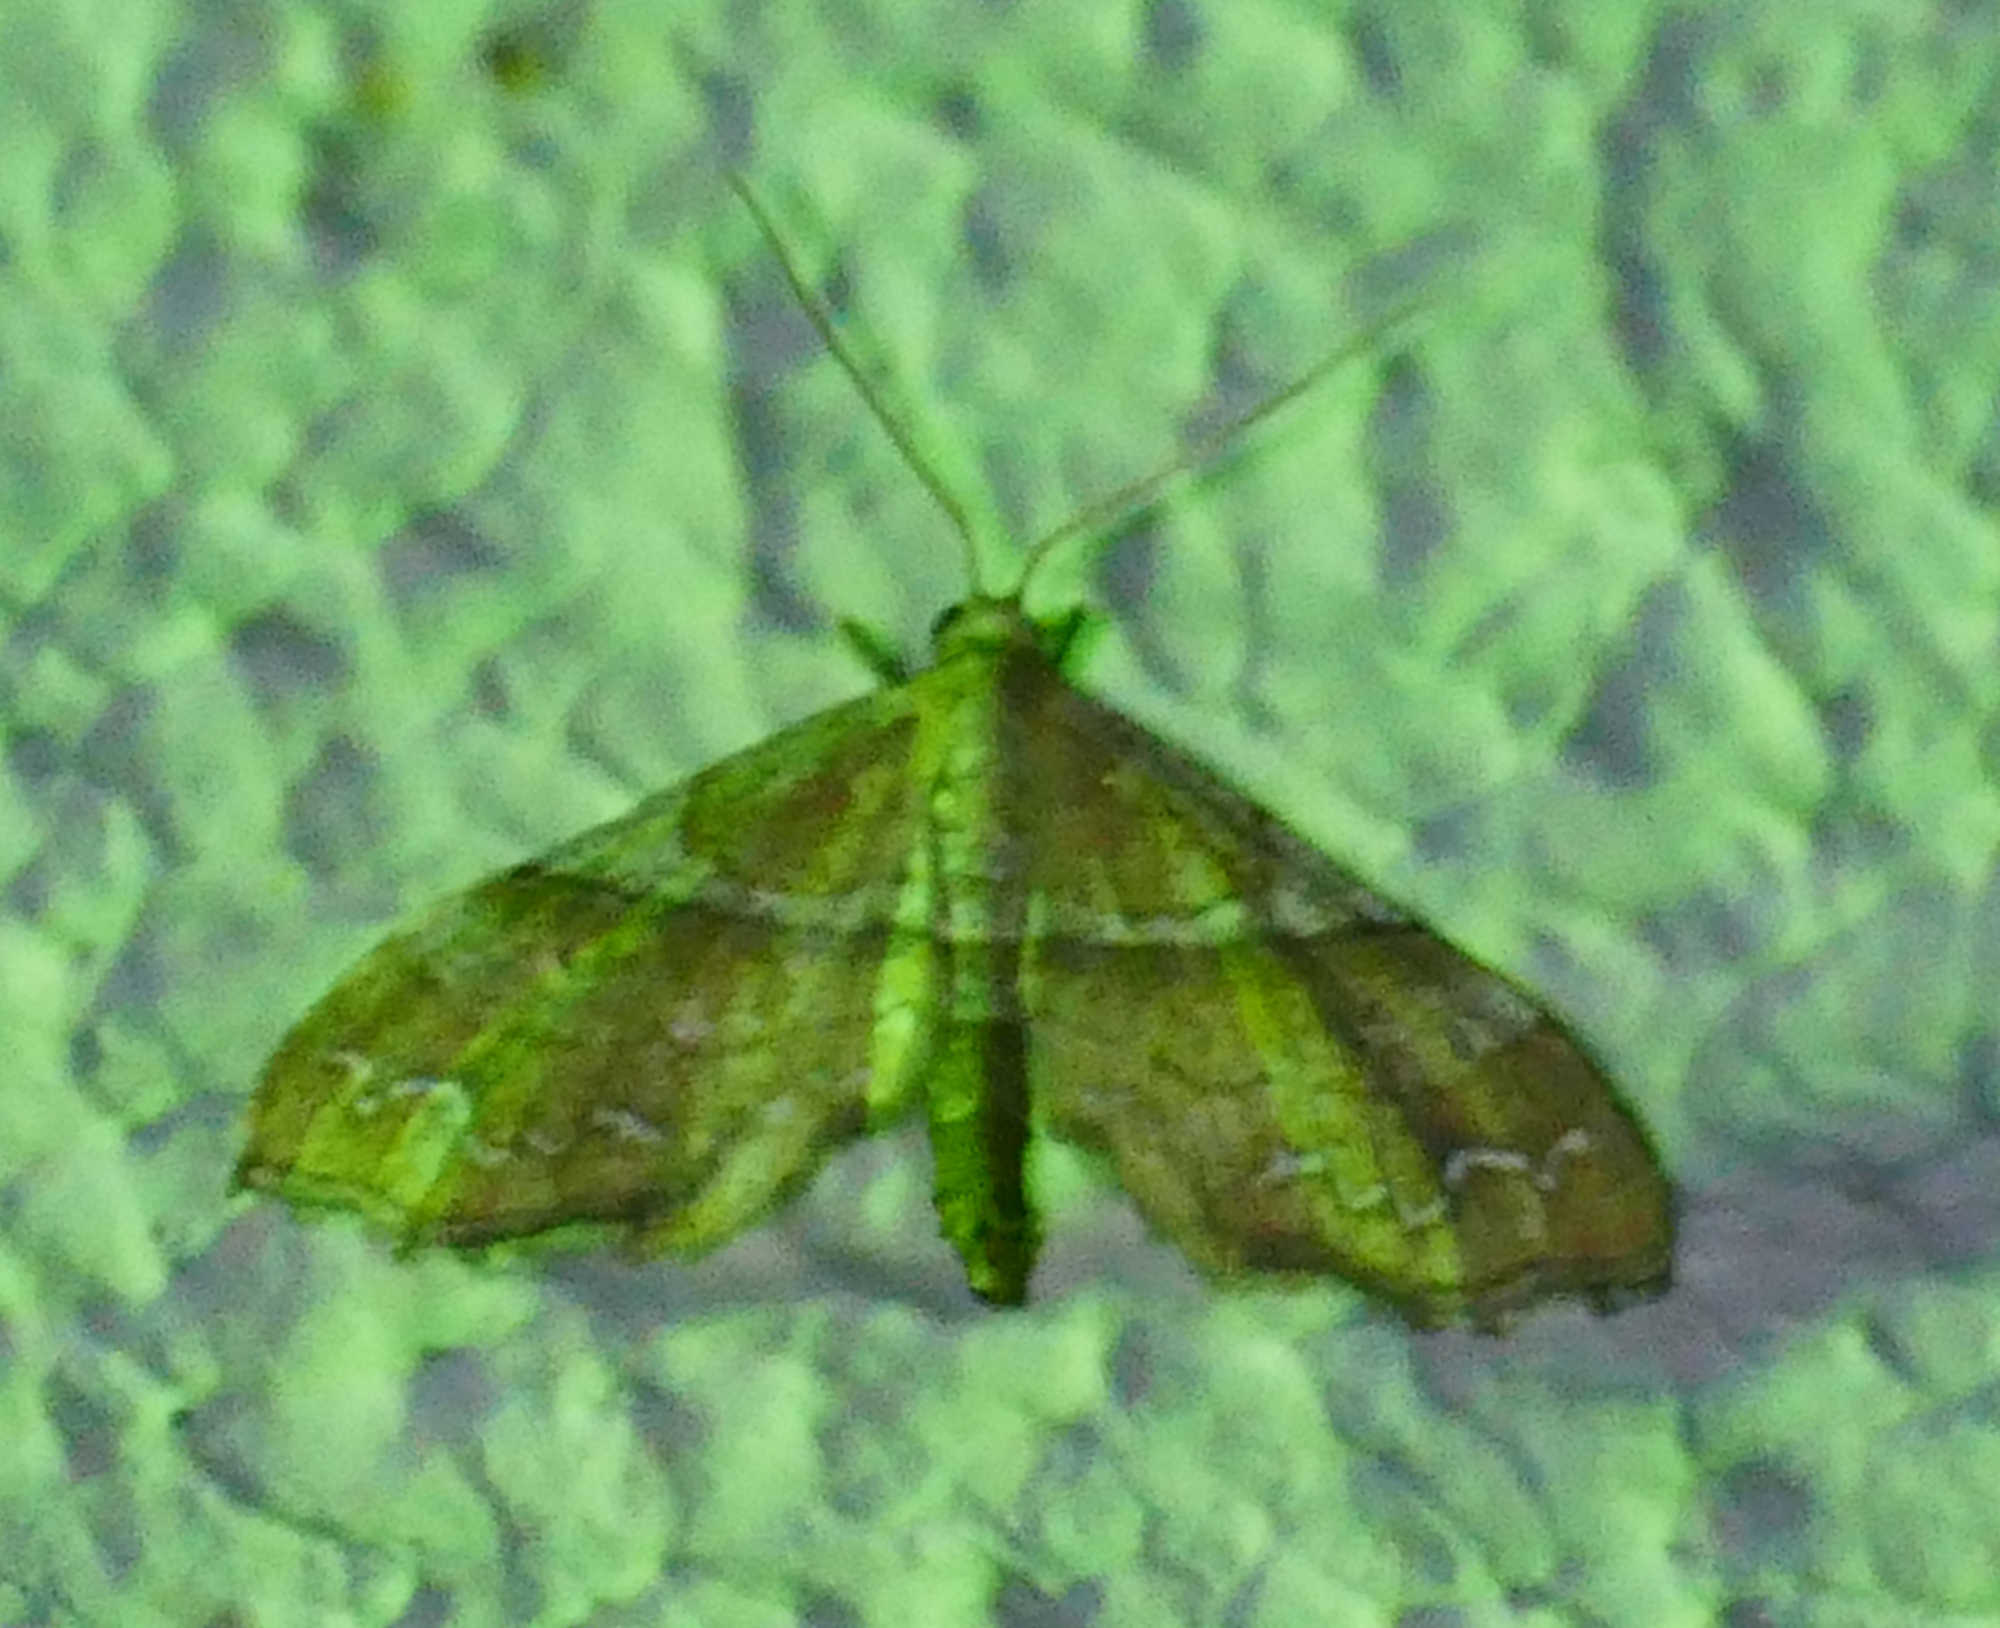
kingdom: Animalia
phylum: Arthropoda
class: Insecta
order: Lepidoptera
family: Geometridae
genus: Odontoptila
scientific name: Odontoptila obrimo
